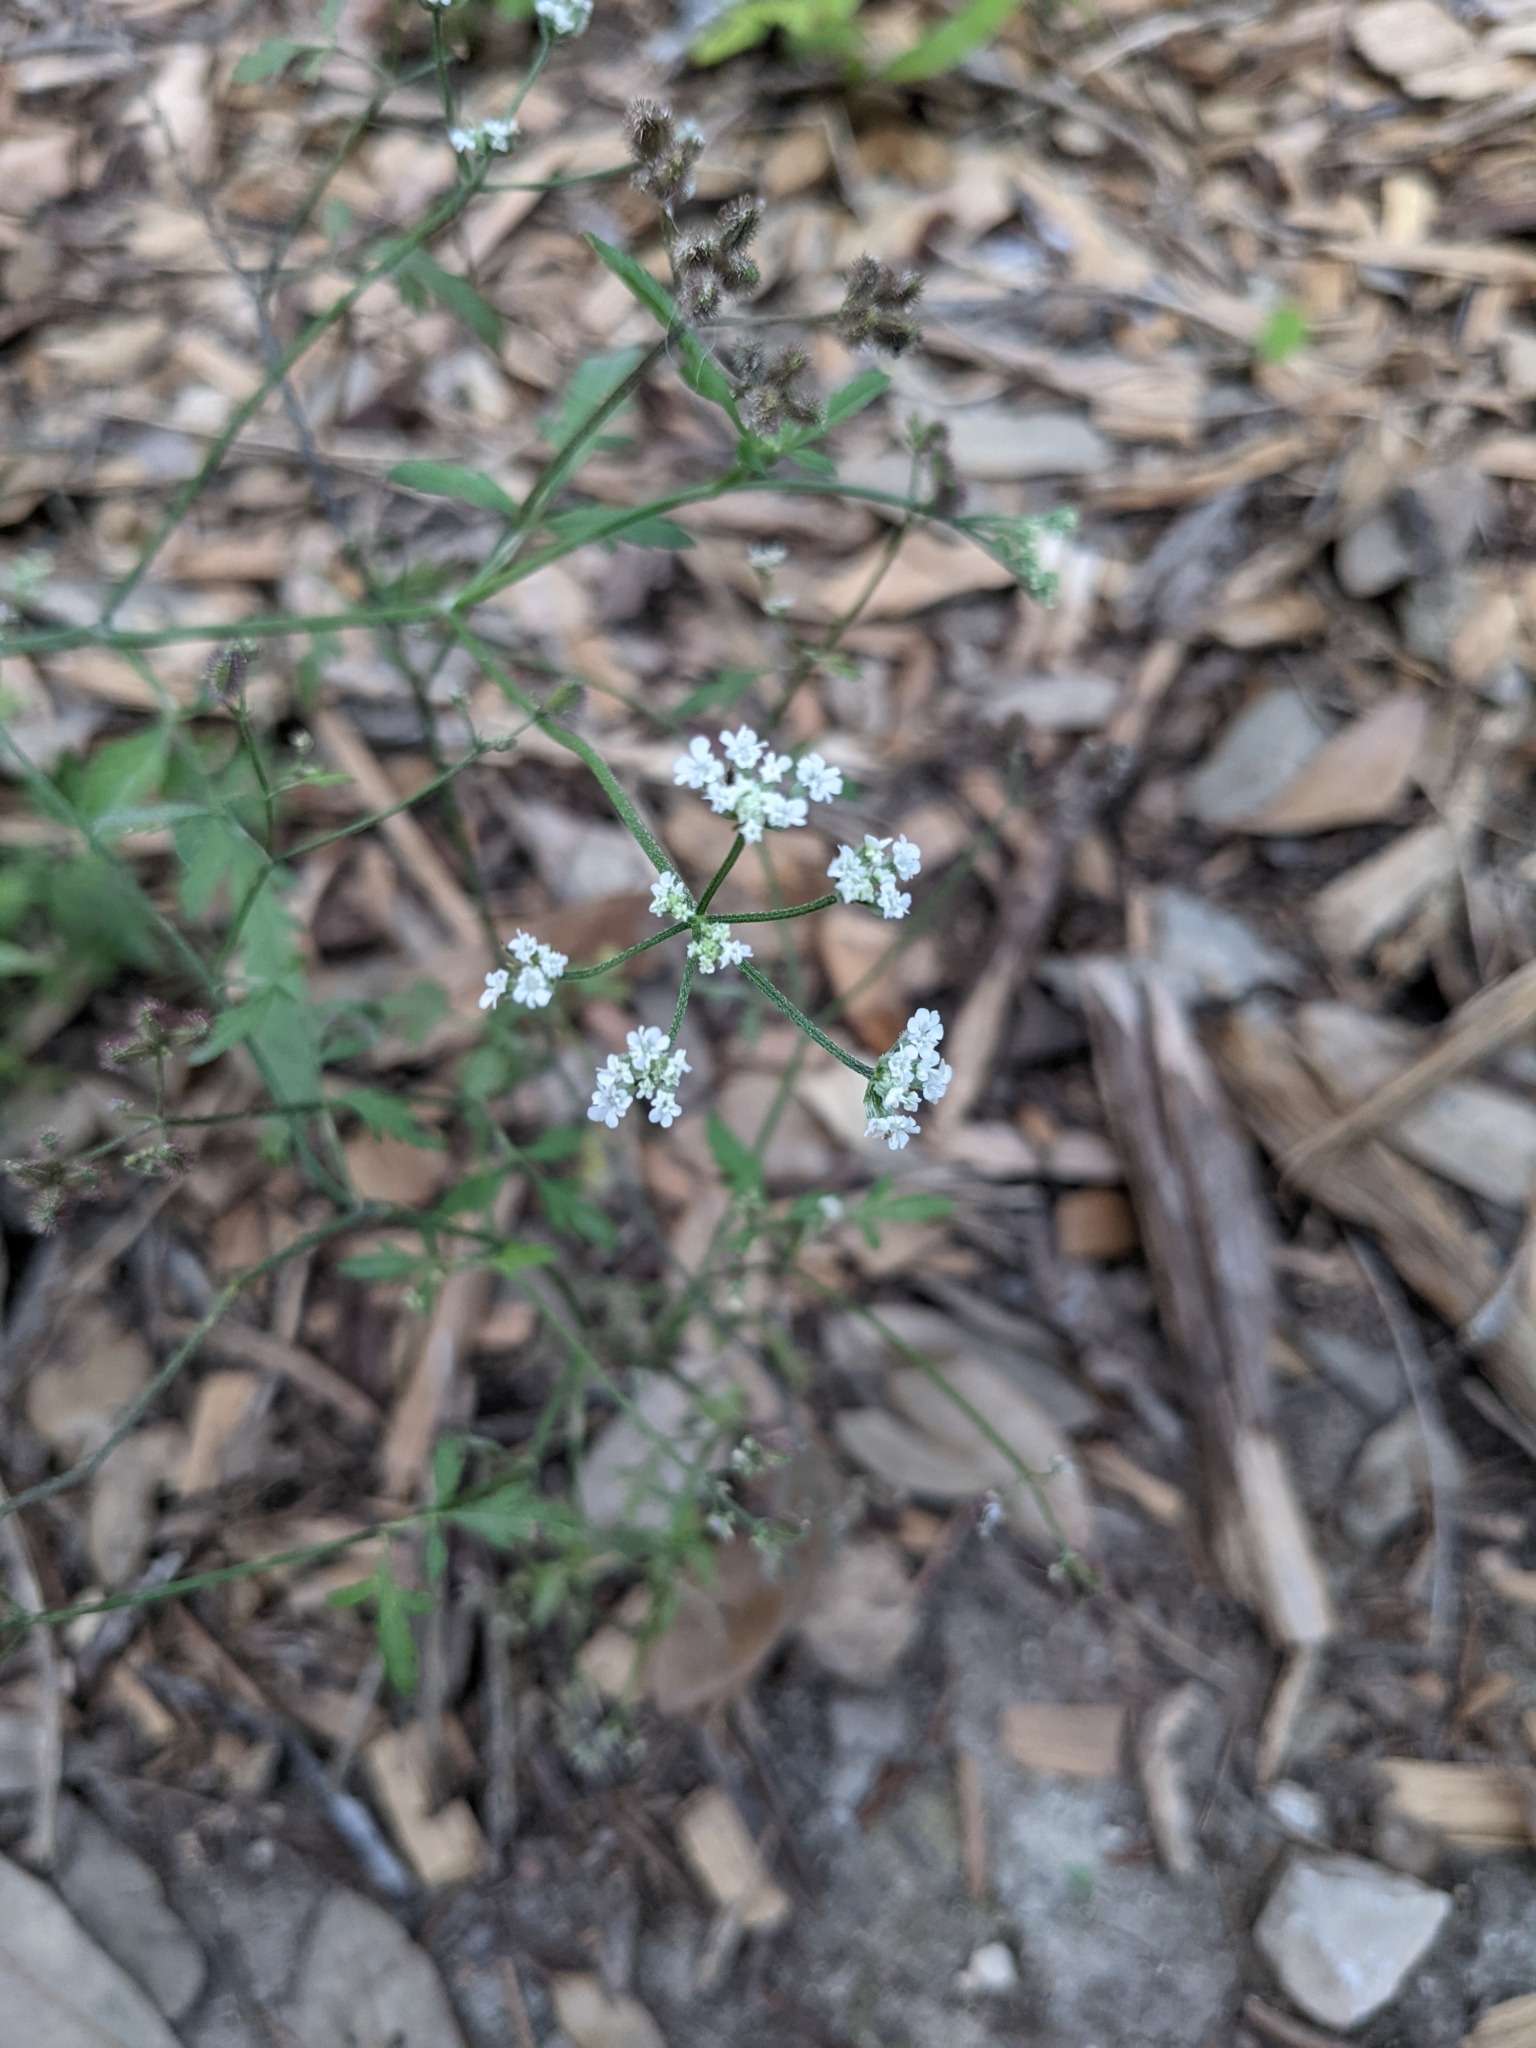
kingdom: Plantae
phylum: Tracheophyta
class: Magnoliopsida
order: Apiales
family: Apiaceae
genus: Torilis
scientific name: Torilis arvensis
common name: Spreading hedge-parsley
